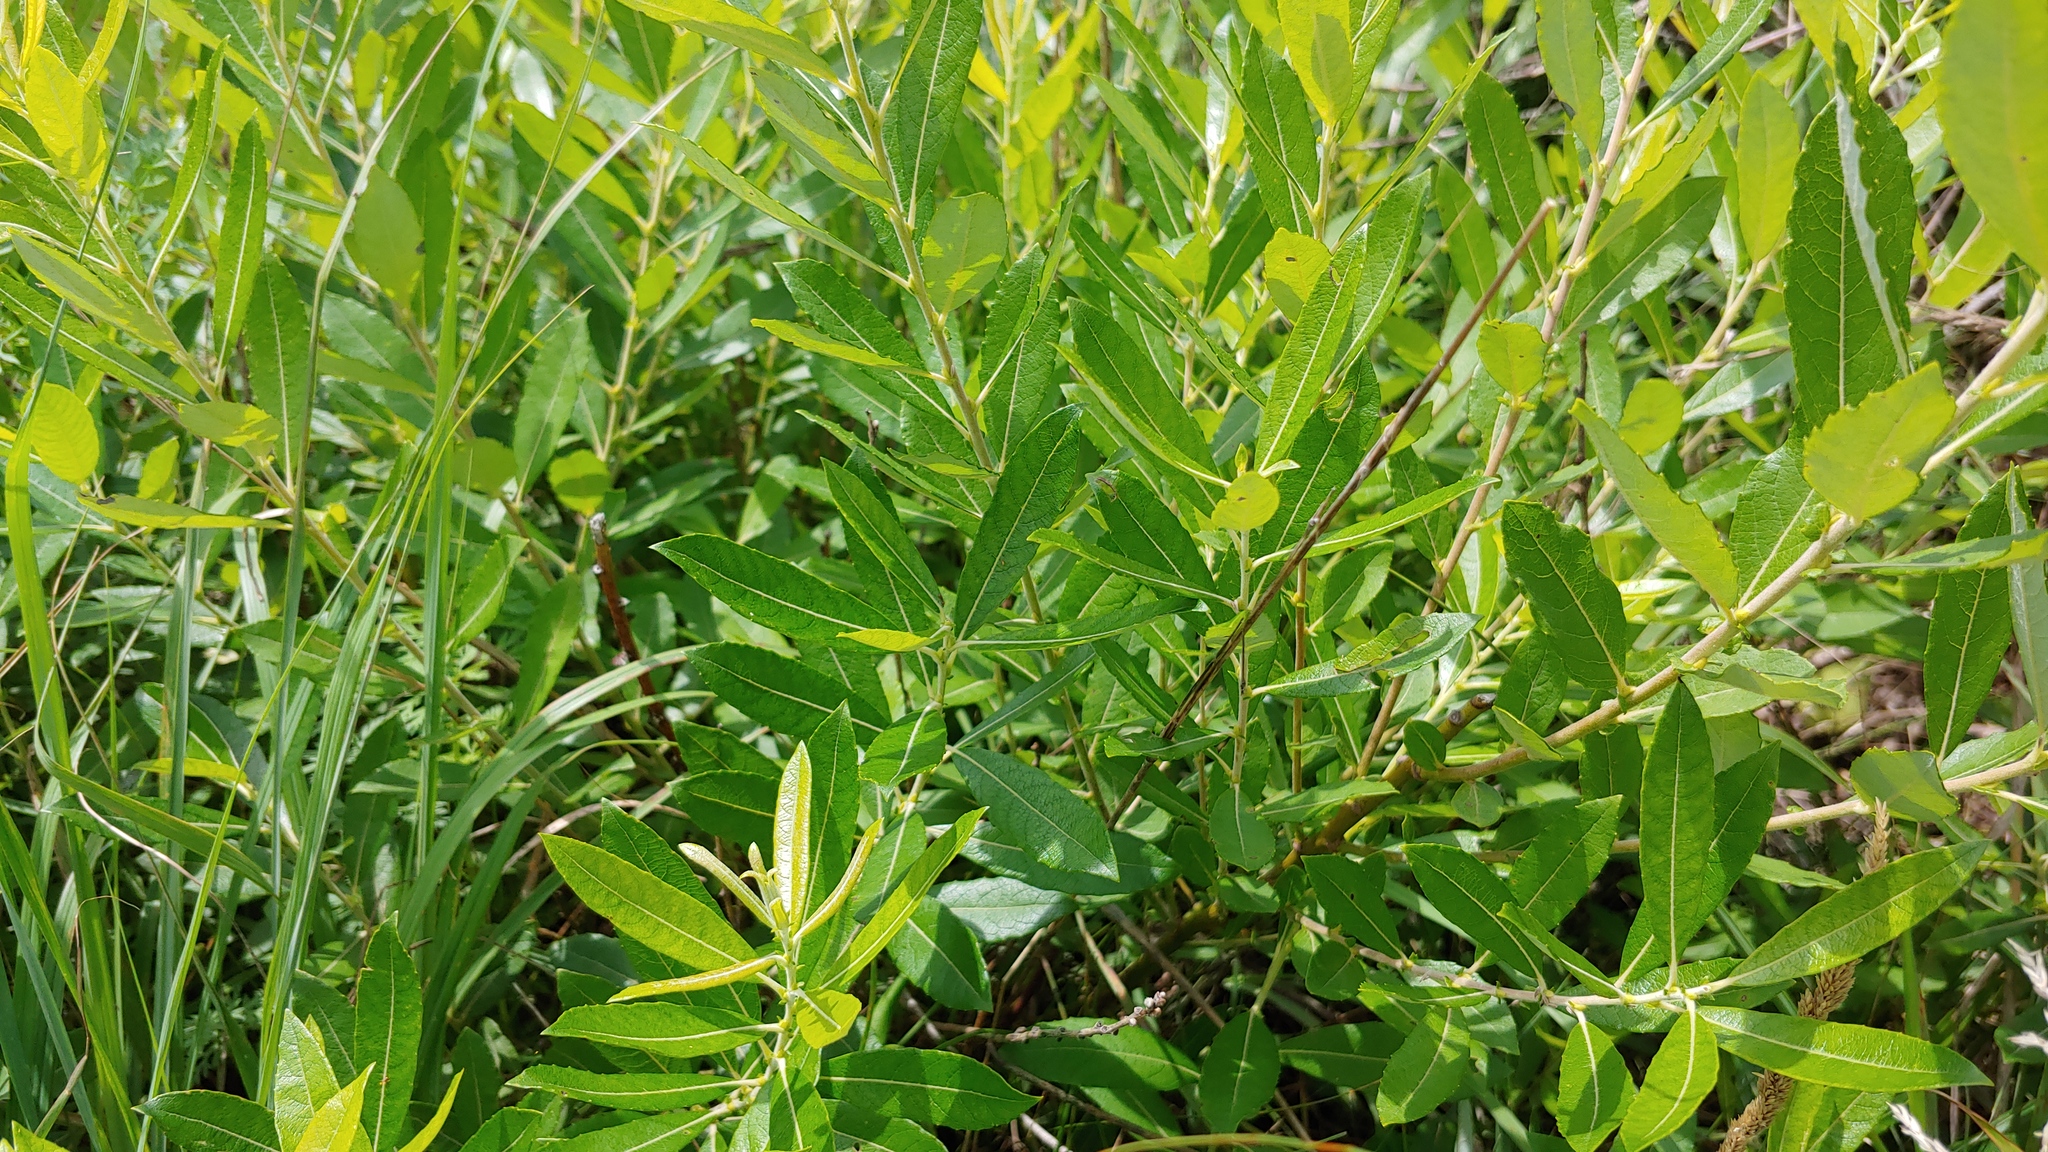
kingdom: Plantae
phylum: Tracheophyta
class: Magnoliopsida
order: Malpighiales
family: Salicaceae
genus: Salix
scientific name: Salix humilis
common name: Prairie willow
